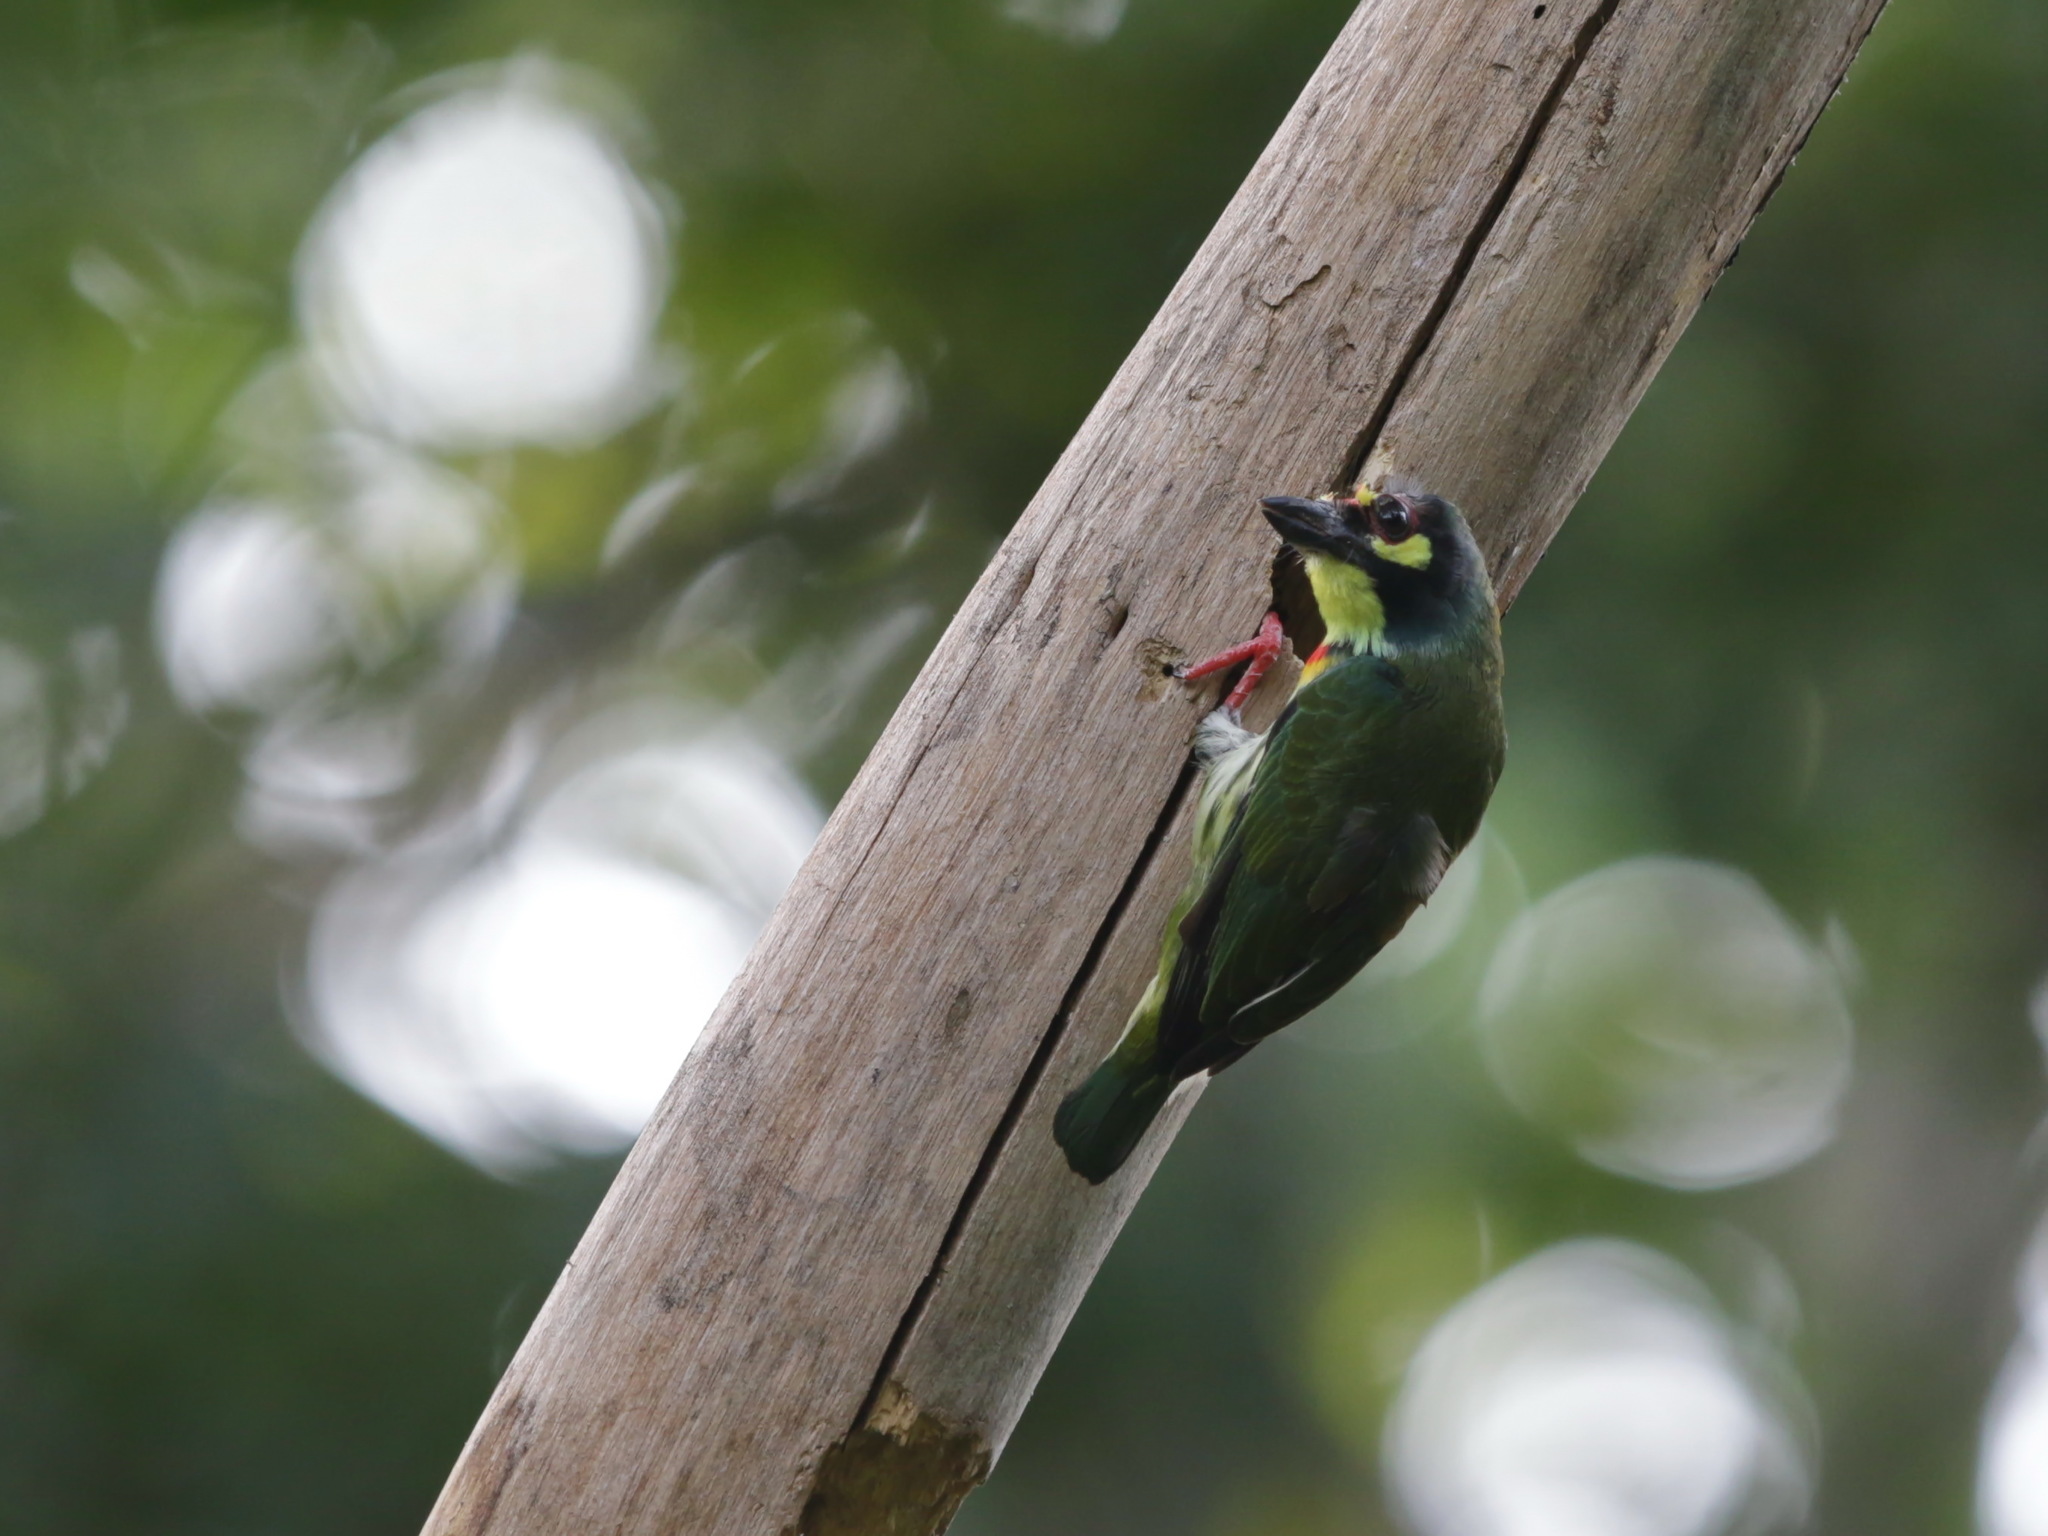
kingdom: Animalia
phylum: Chordata
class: Aves
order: Piciformes
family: Megalaimidae
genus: Psilopogon
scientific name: Psilopogon haemacephalus
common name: Coppersmith barbet
